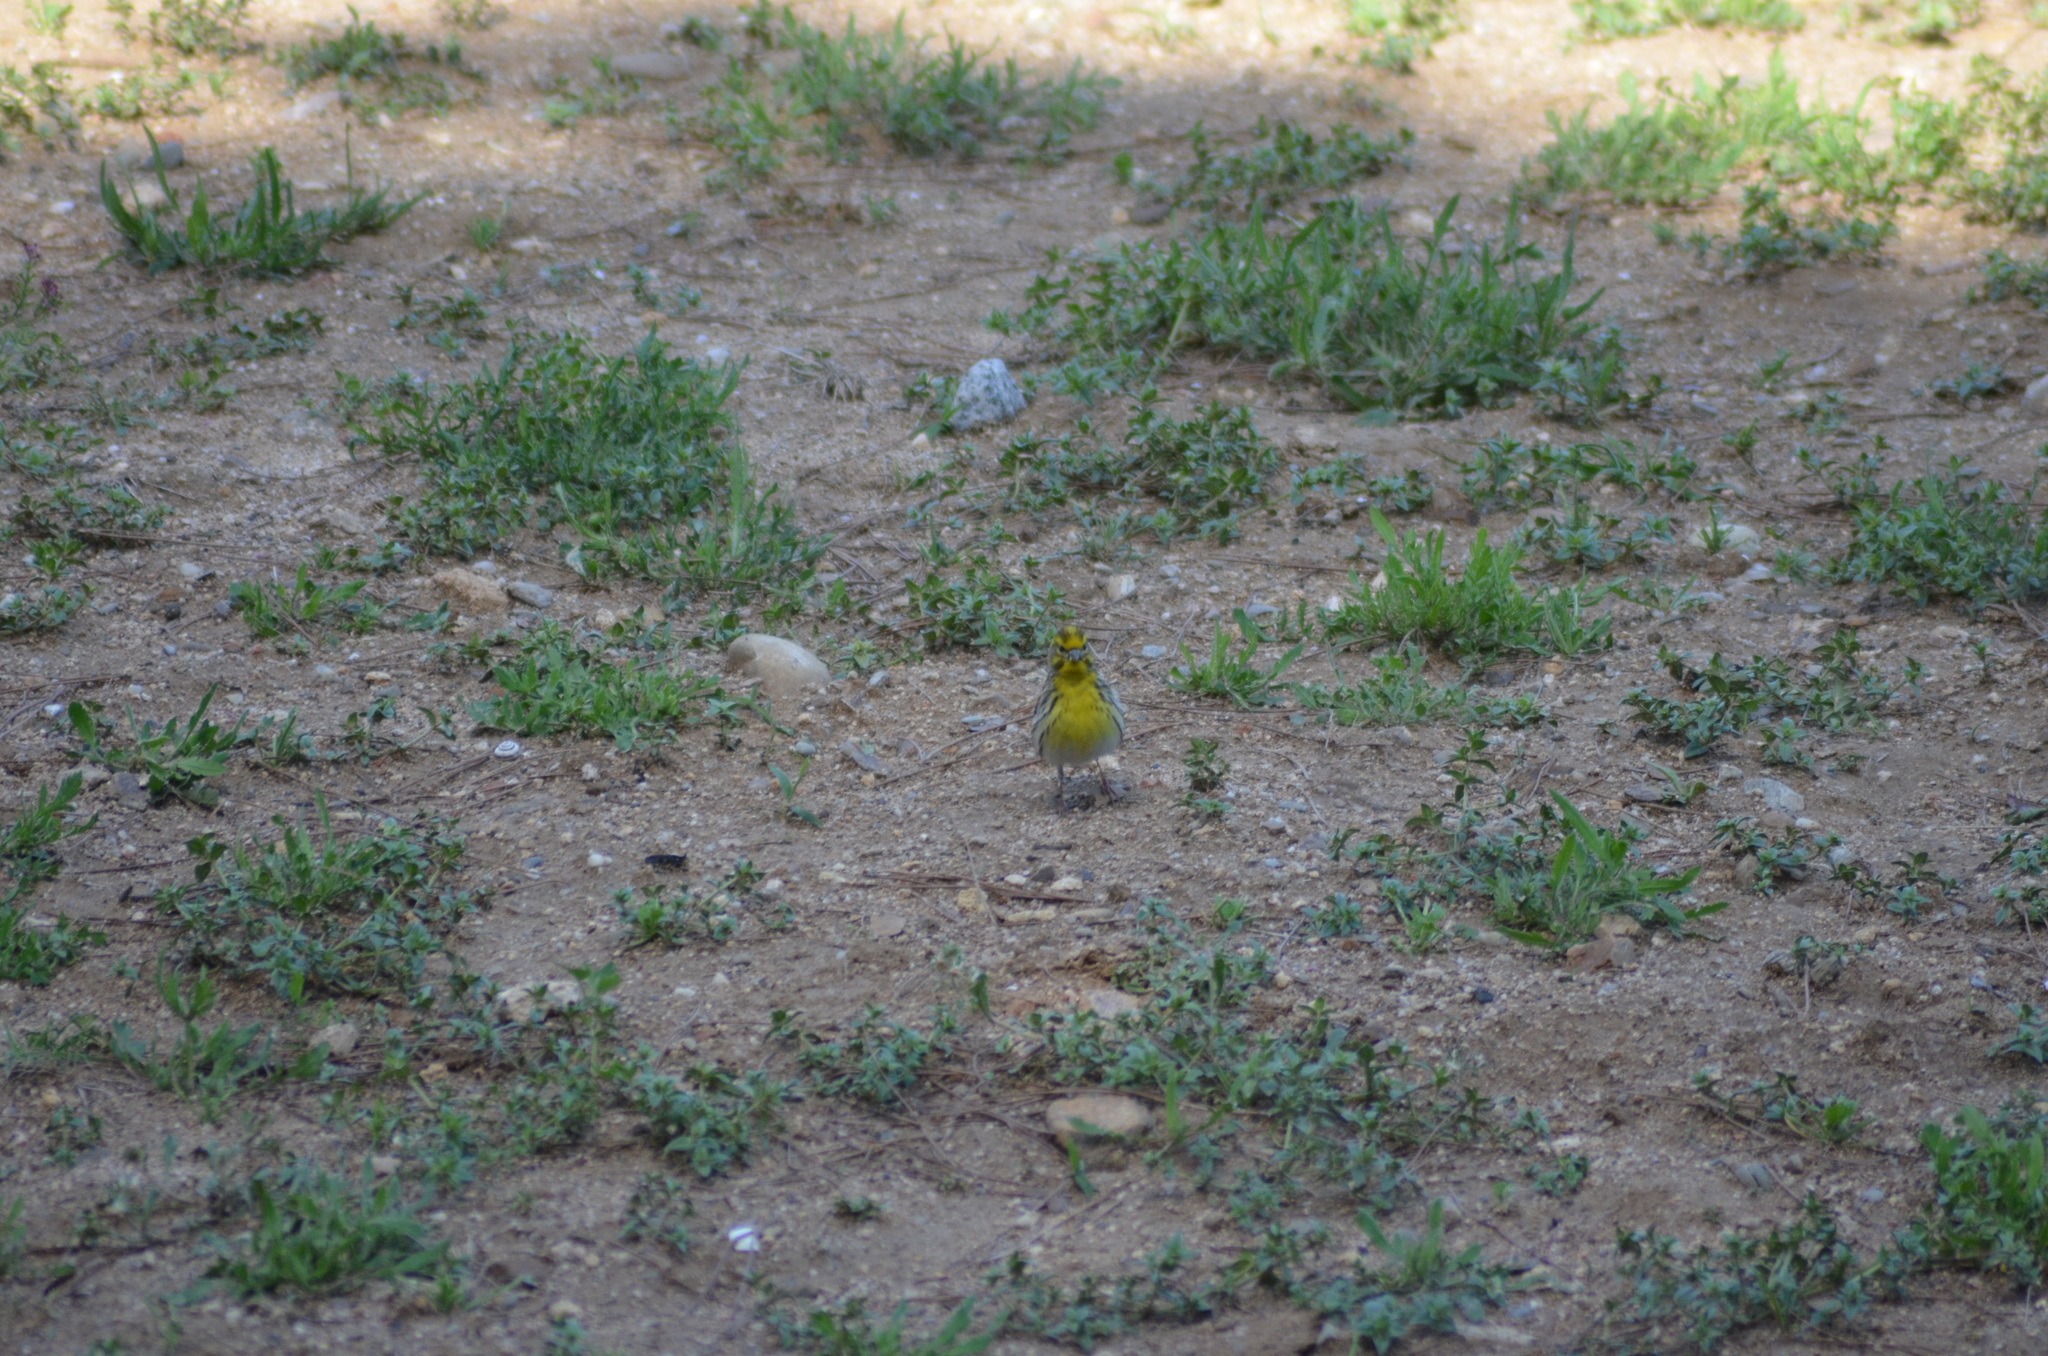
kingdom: Animalia
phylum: Chordata
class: Aves
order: Passeriformes
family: Fringillidae
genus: Serinus
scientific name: Serinus serinus
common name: European serin
